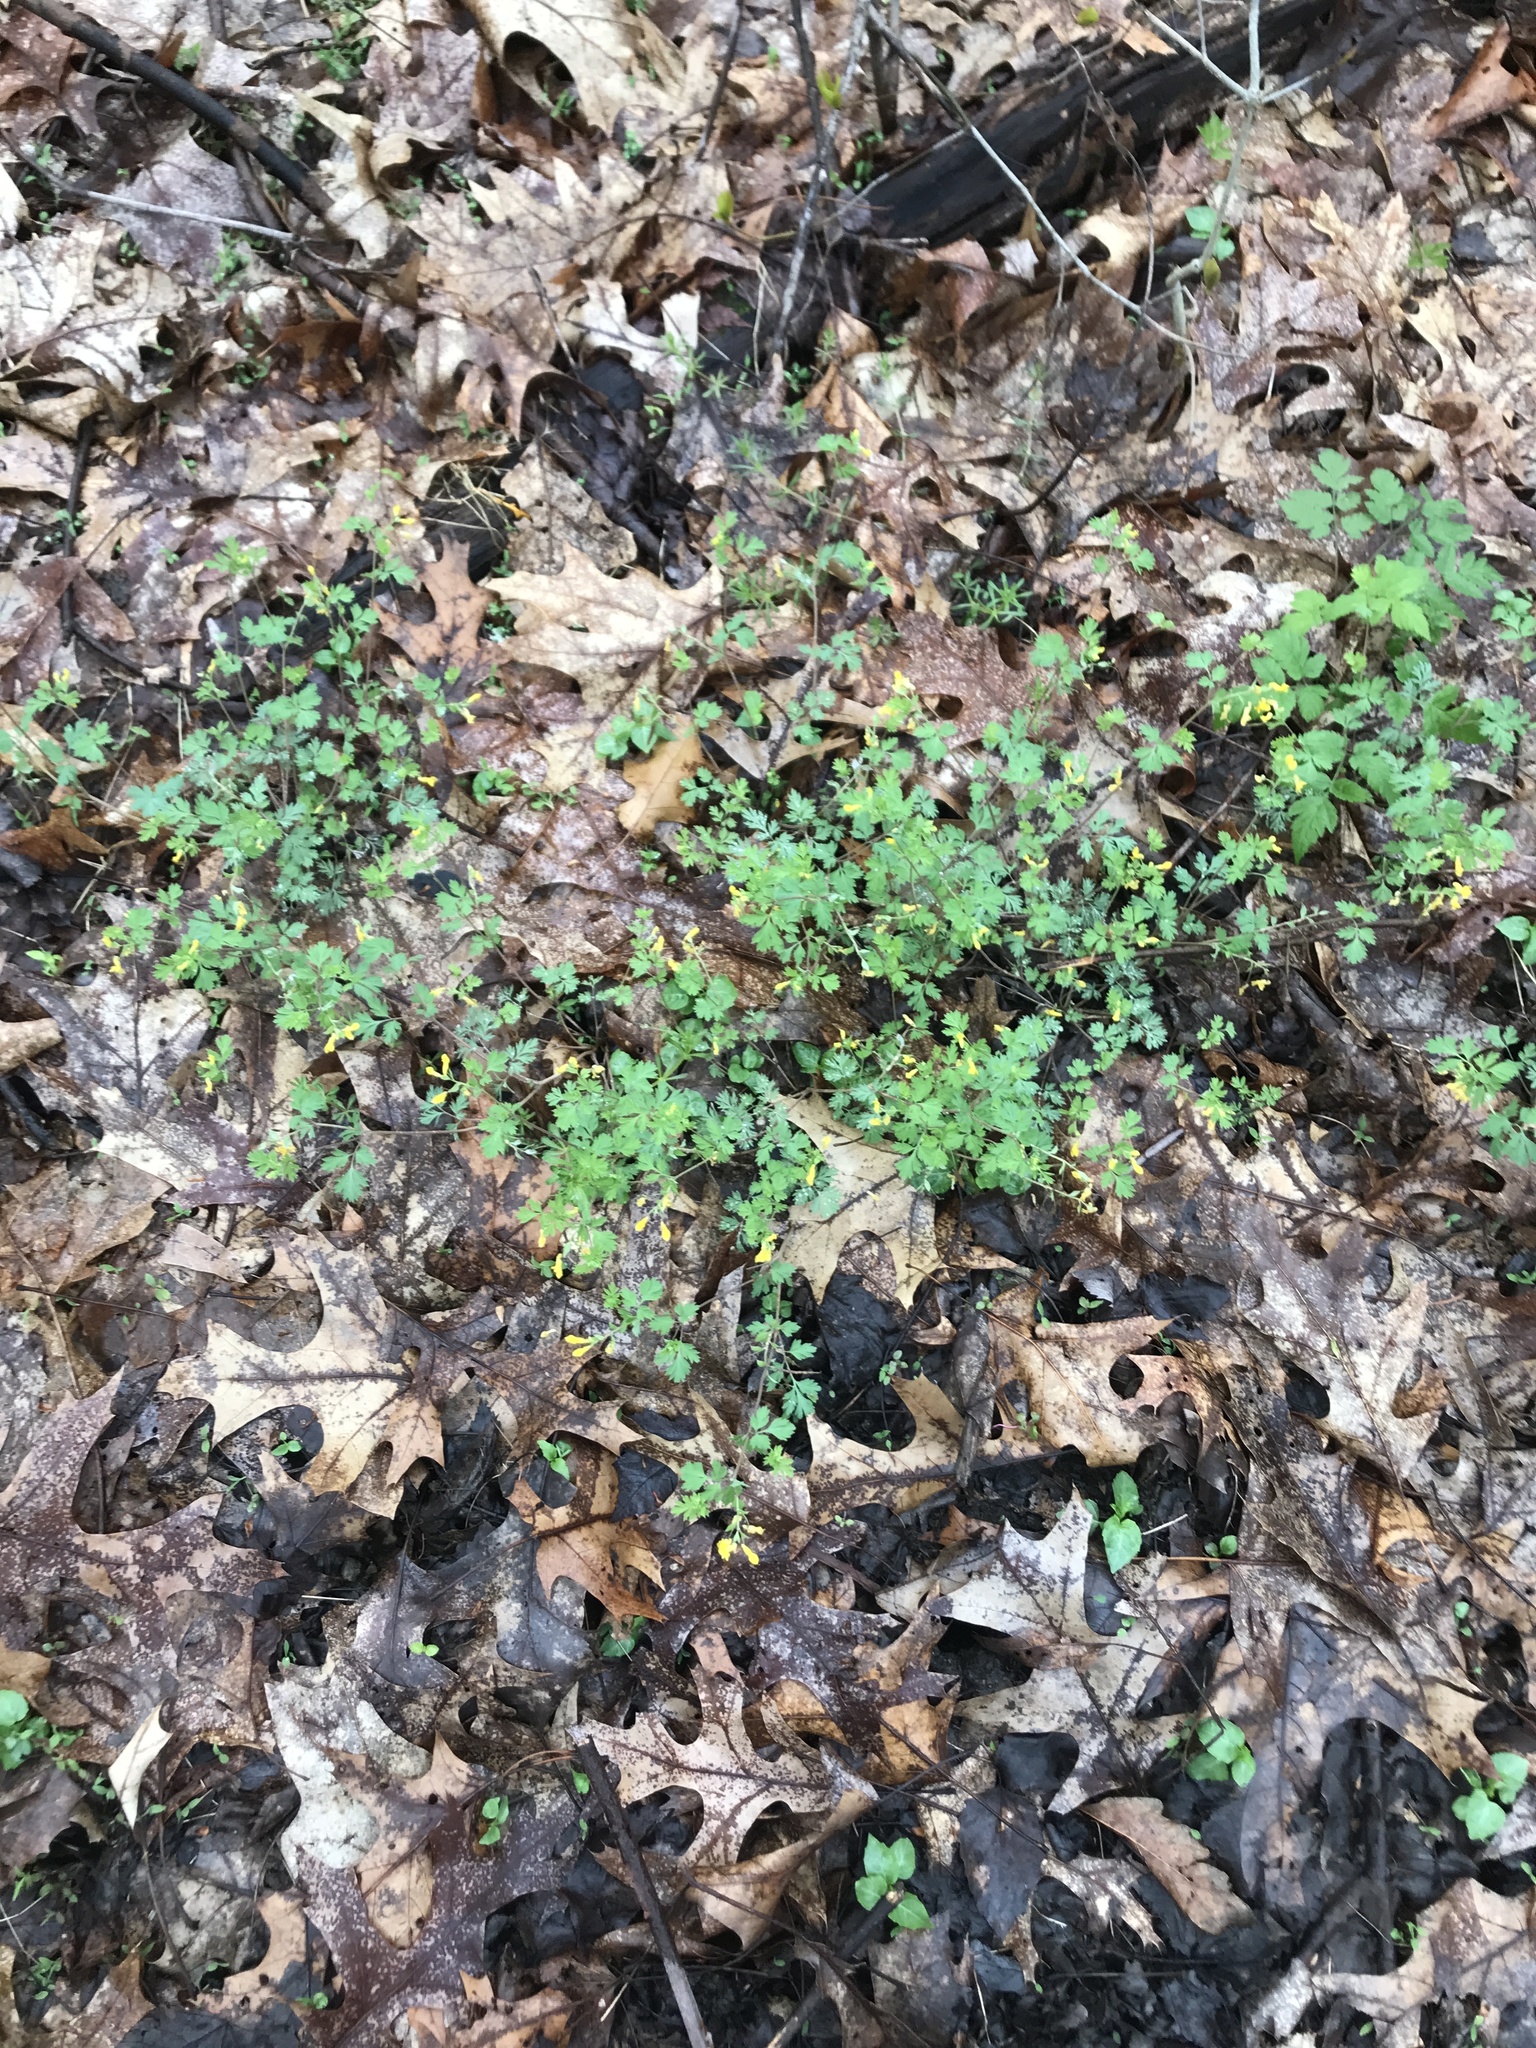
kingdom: Plantae
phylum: Tracheophyta
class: Magnoliopsida
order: Ranunculales
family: Papaveraceae
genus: Corydalis
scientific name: Corydalis flavula
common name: Yellow corydalis
